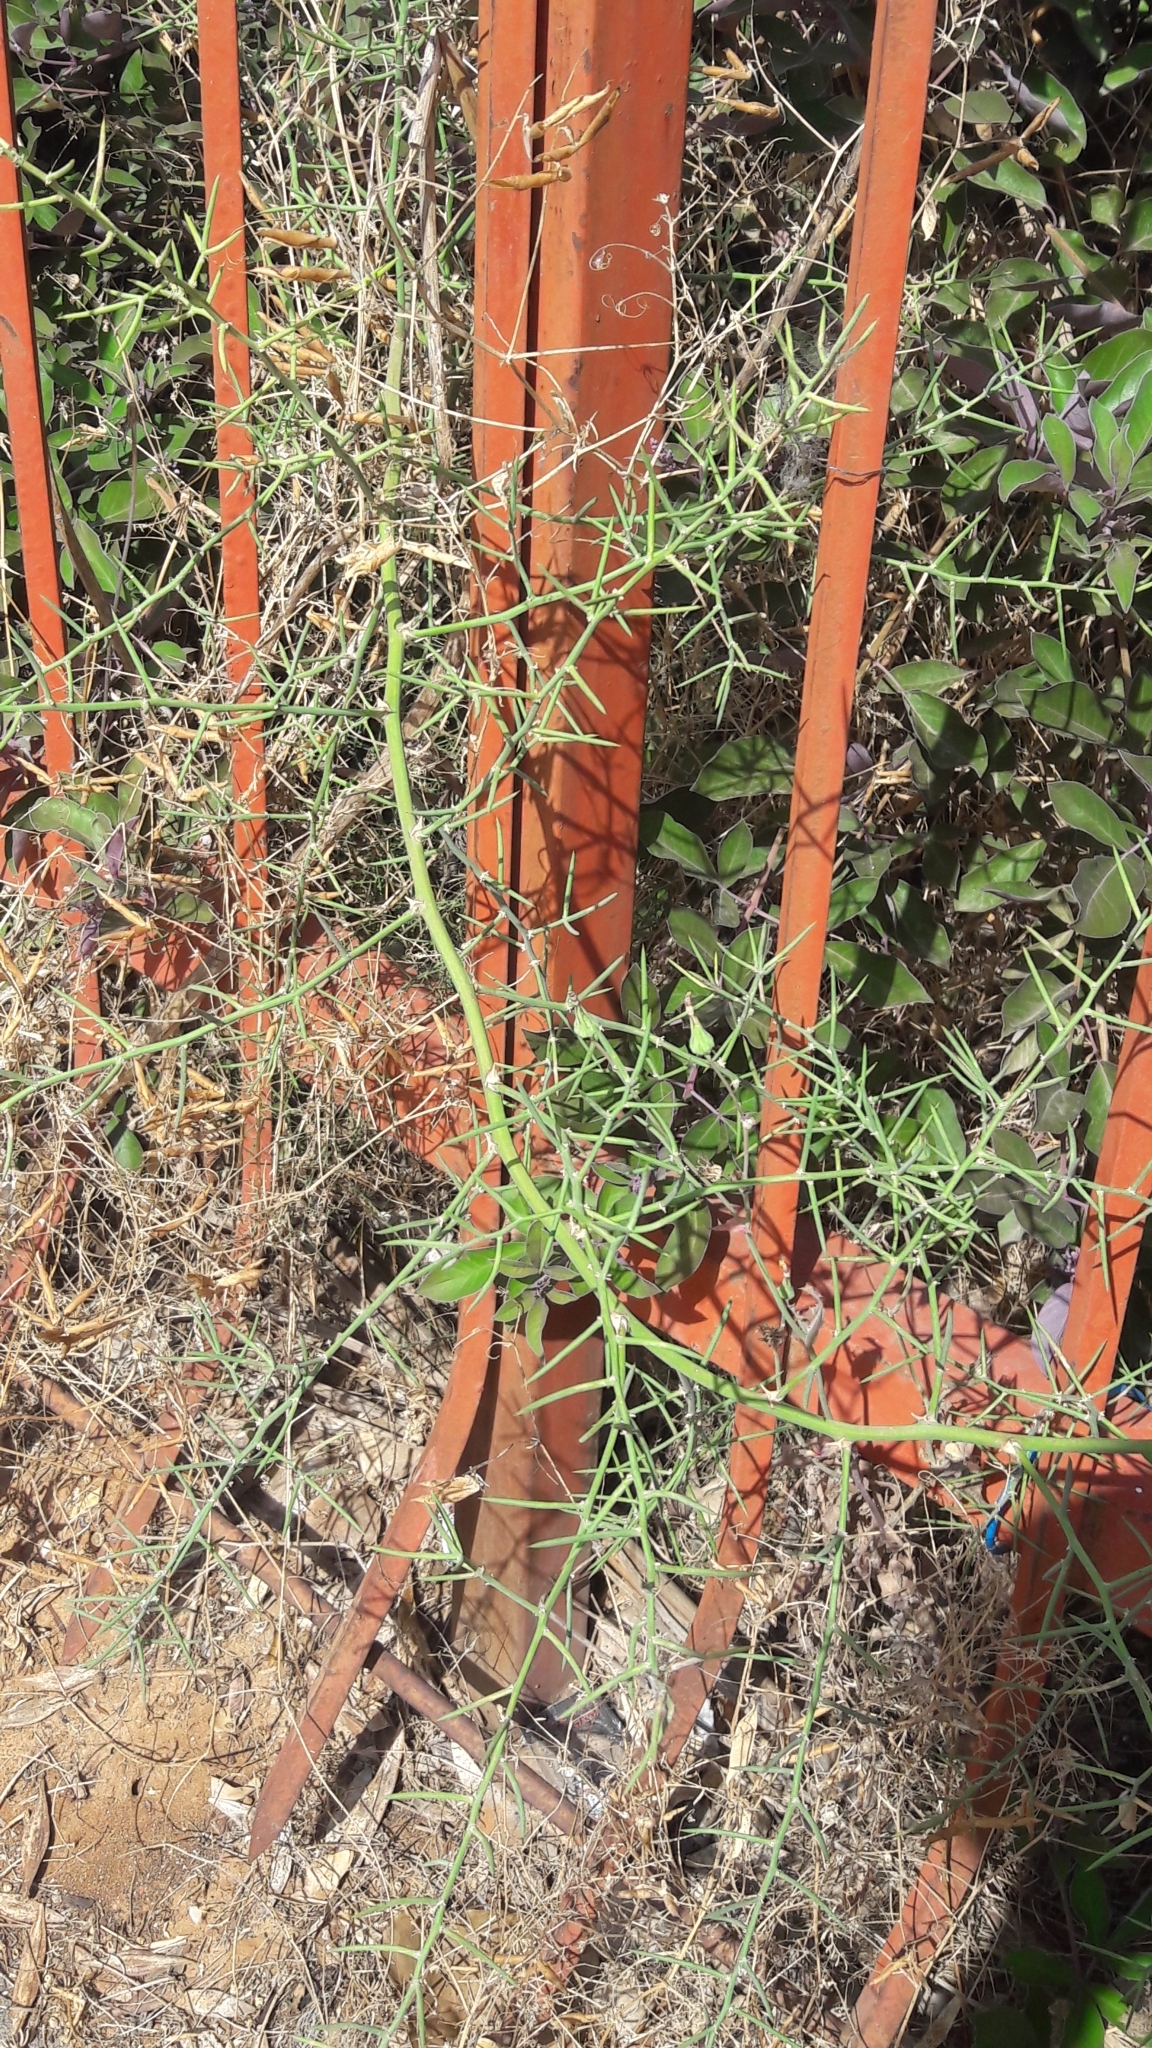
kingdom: Plantae
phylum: Tracheophyta
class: Liliopsida
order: Asparagales
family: Asparagaceae
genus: Asparagus
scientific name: Asparagus horridus
